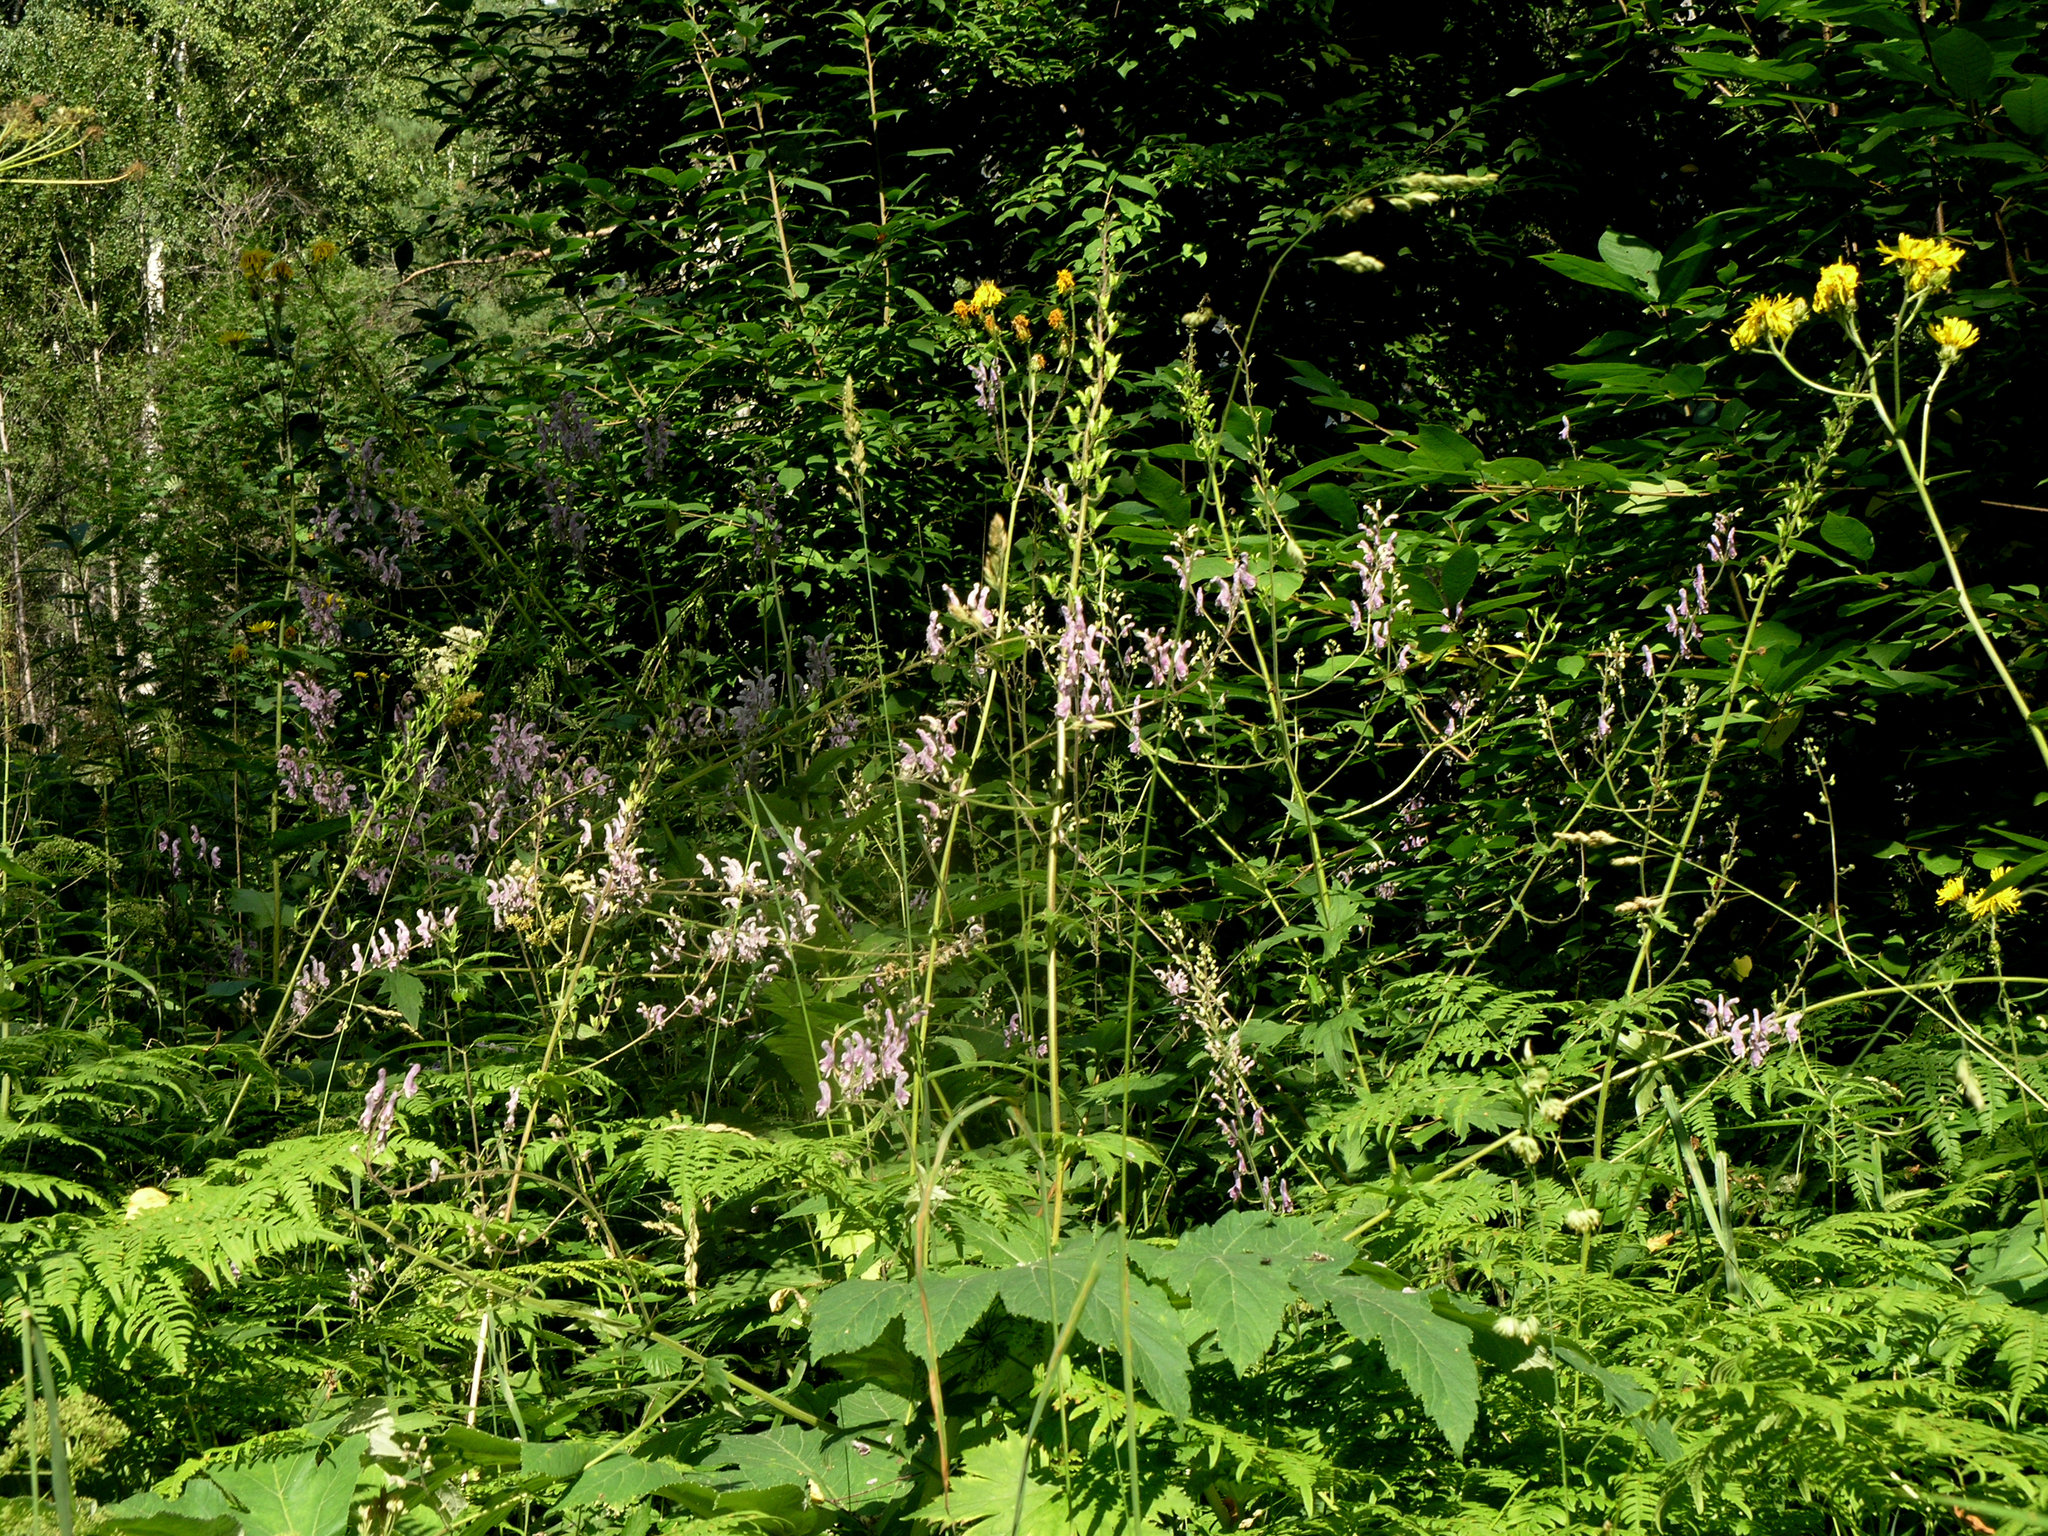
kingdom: Plantae
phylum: Tracheophyta
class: Magnoliopsida
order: Ranunculales
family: Ranunculaceae
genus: Aconitum
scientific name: Aconitum septentrionale
